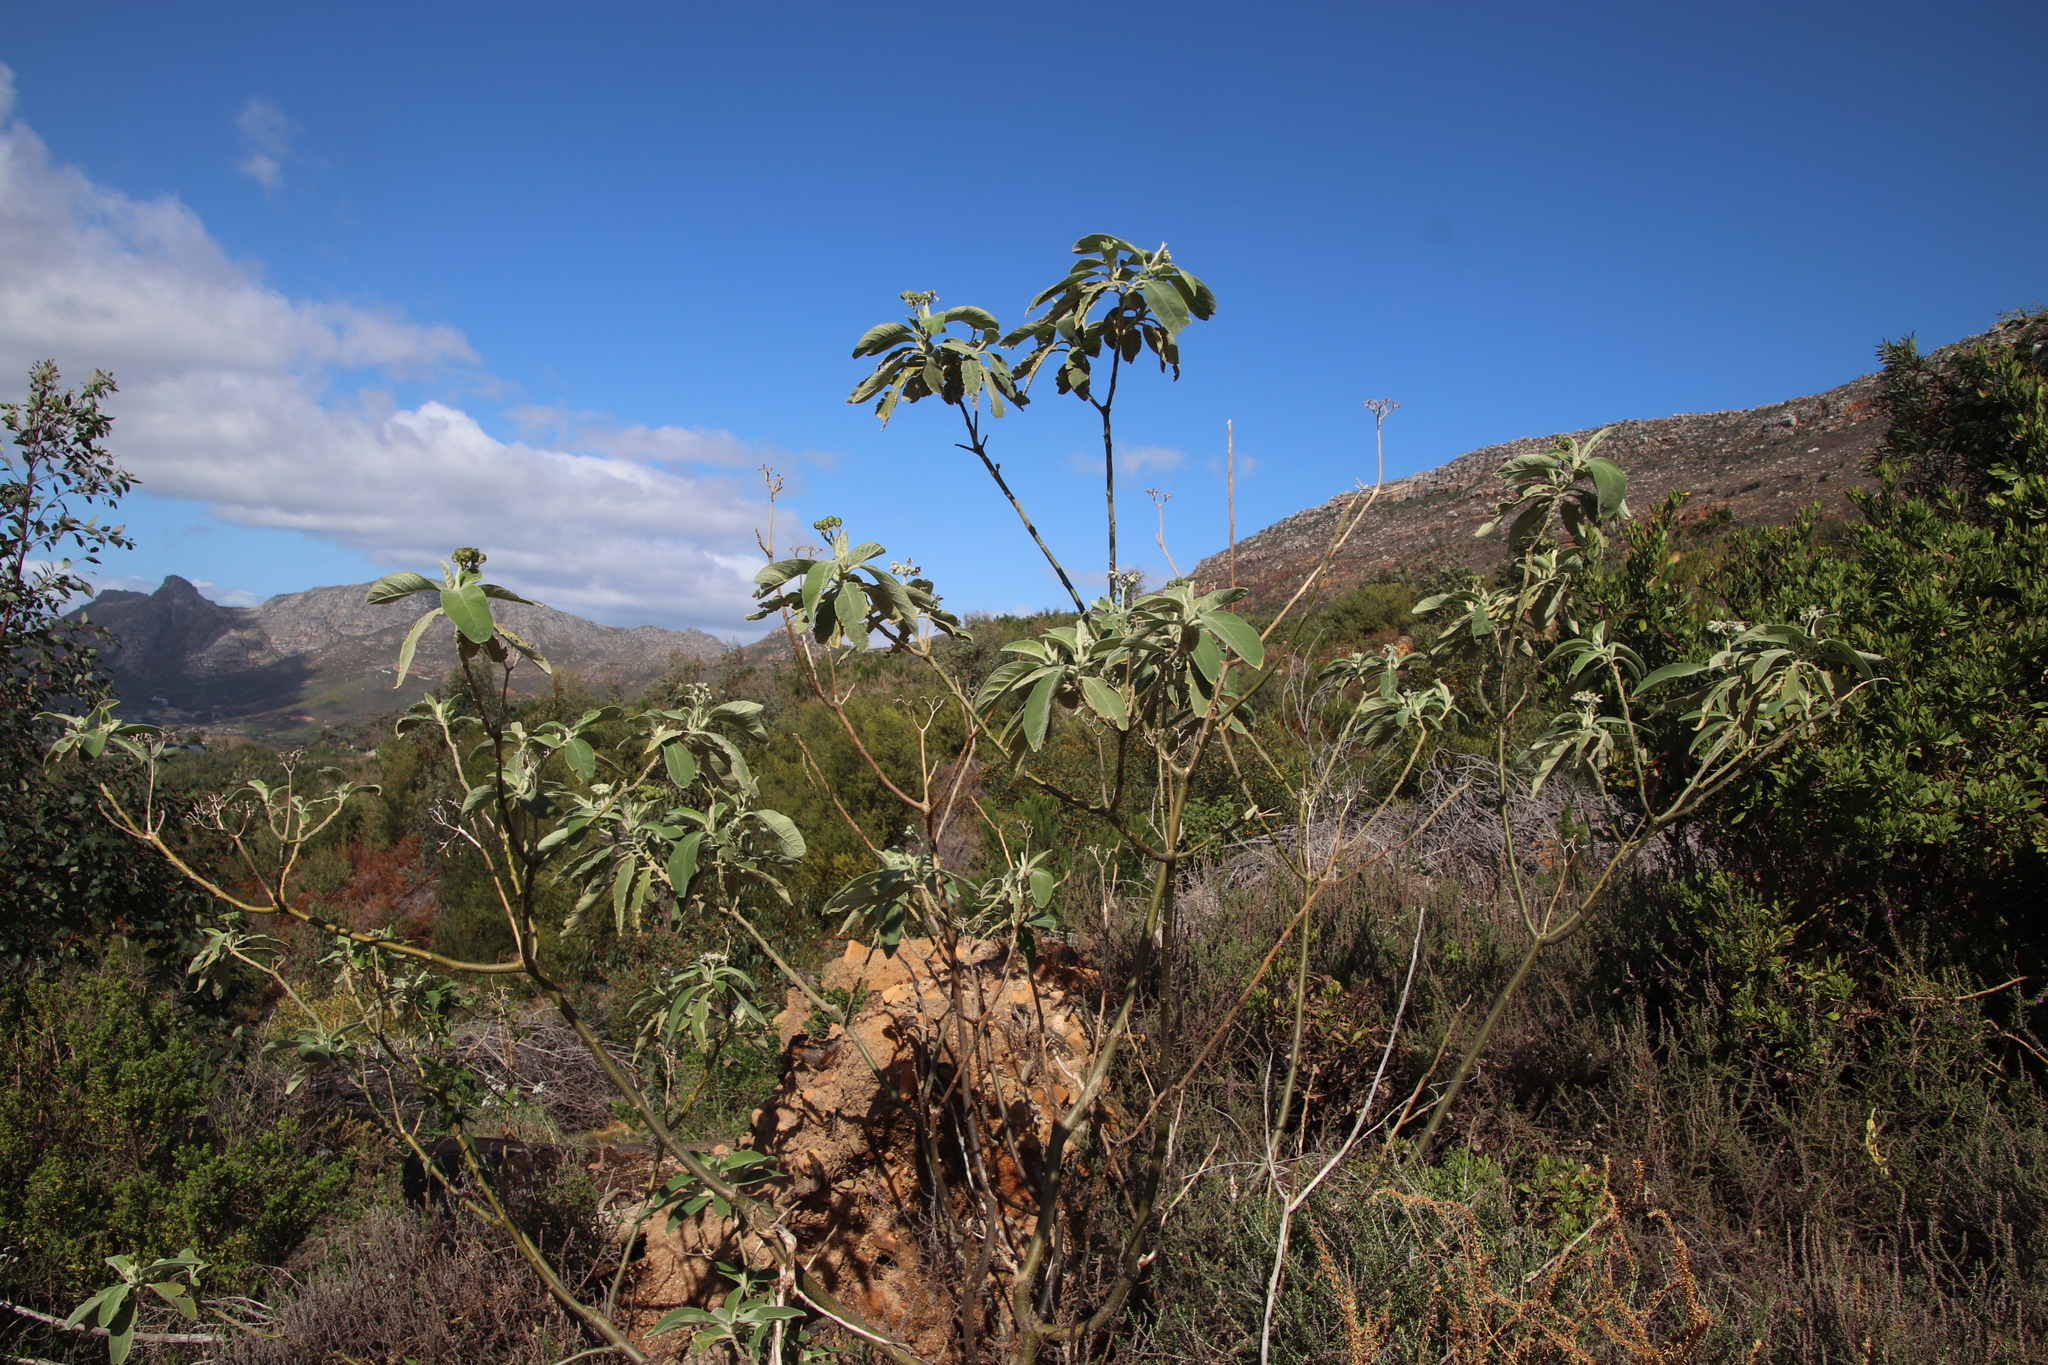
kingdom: Plantae
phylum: Tracheophyta
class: Magnoliopsida
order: Solanales
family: Solanaceae
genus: Solanum
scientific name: Solanum mauritianum
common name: Earleaf nightshade
